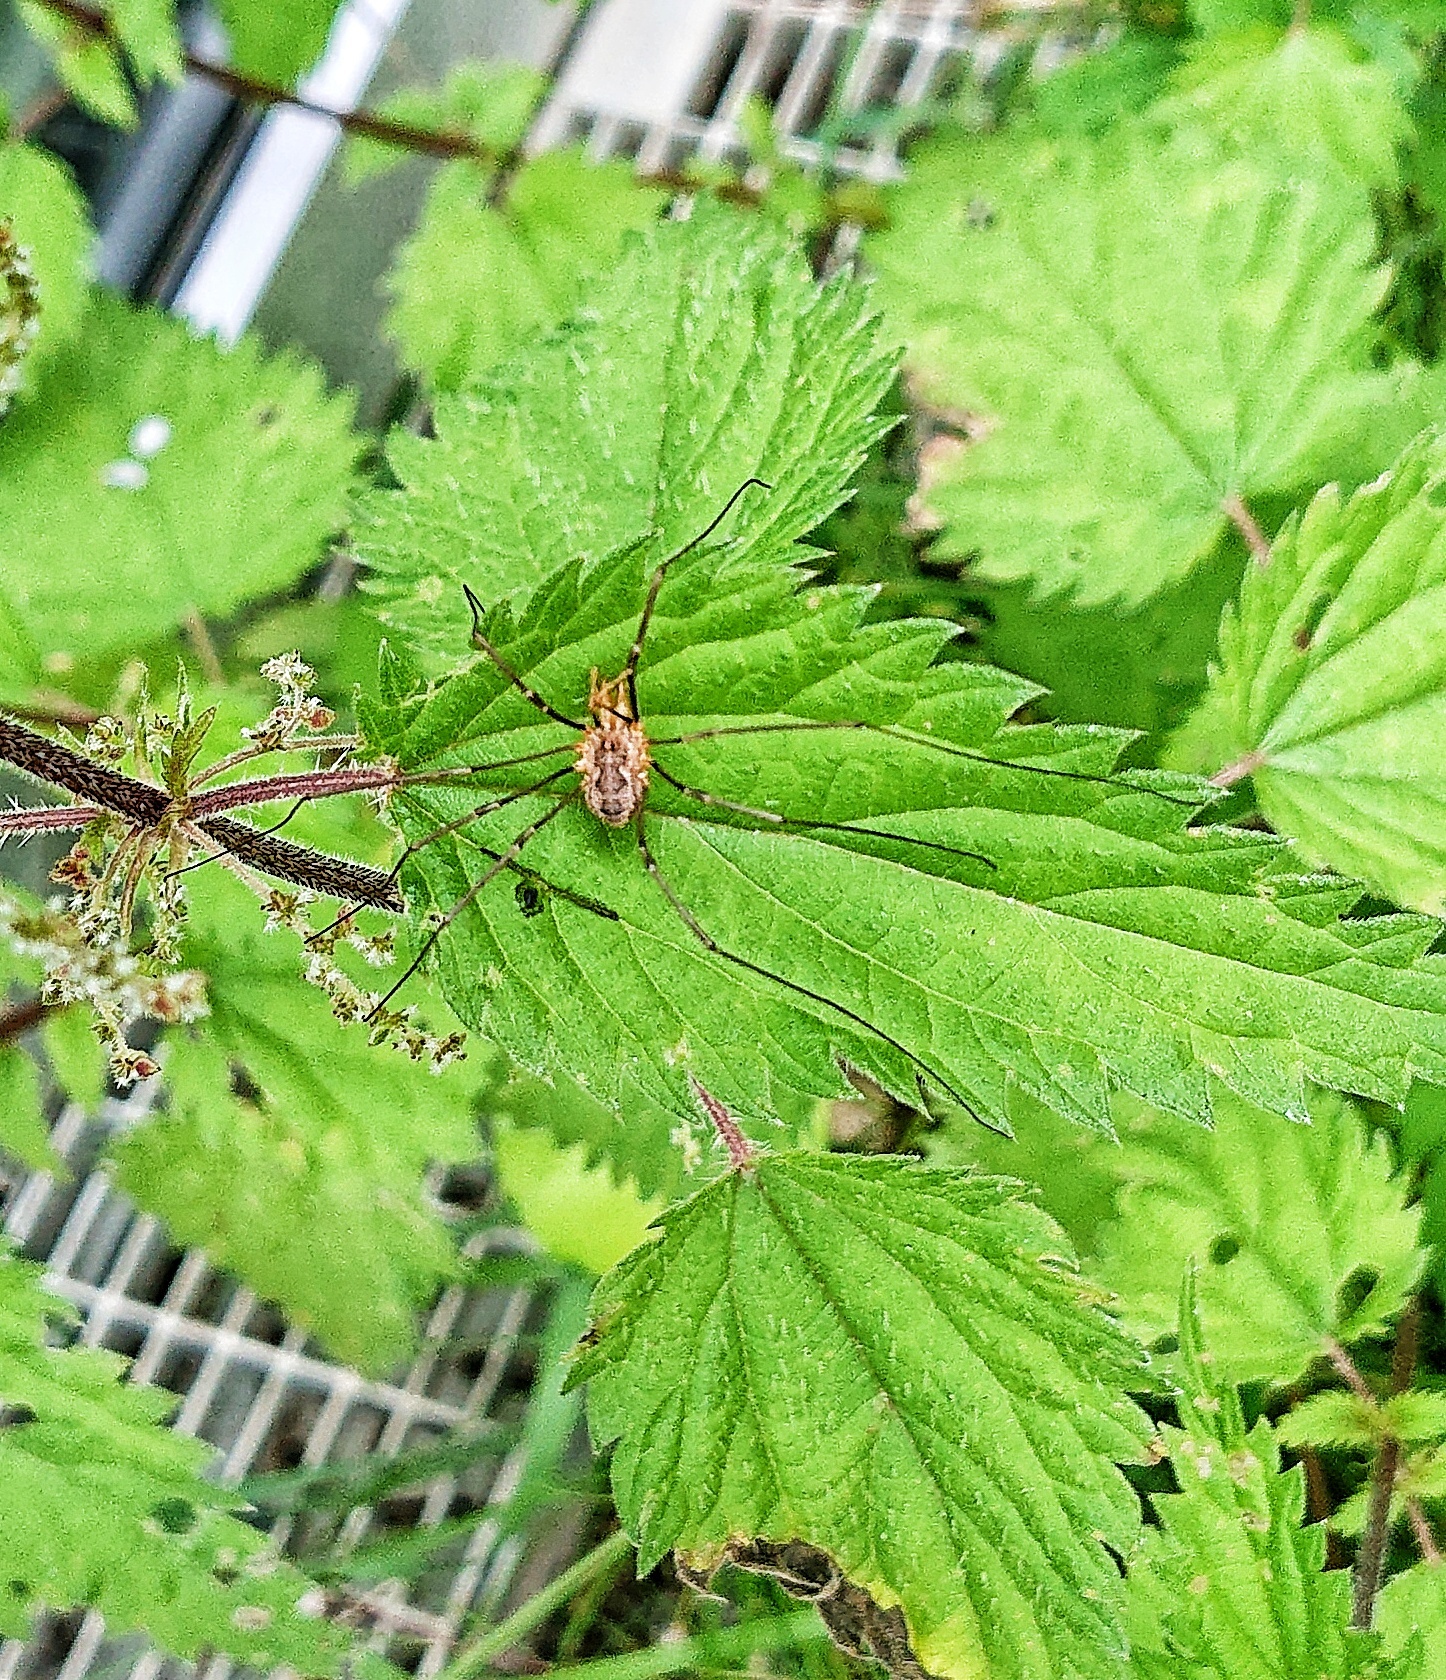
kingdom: Animalia
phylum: Arthropoda
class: Arachnida
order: Opiliones
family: Phalangiidae
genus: Phalangium
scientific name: Phalangium opilio
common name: Daddy longleg
